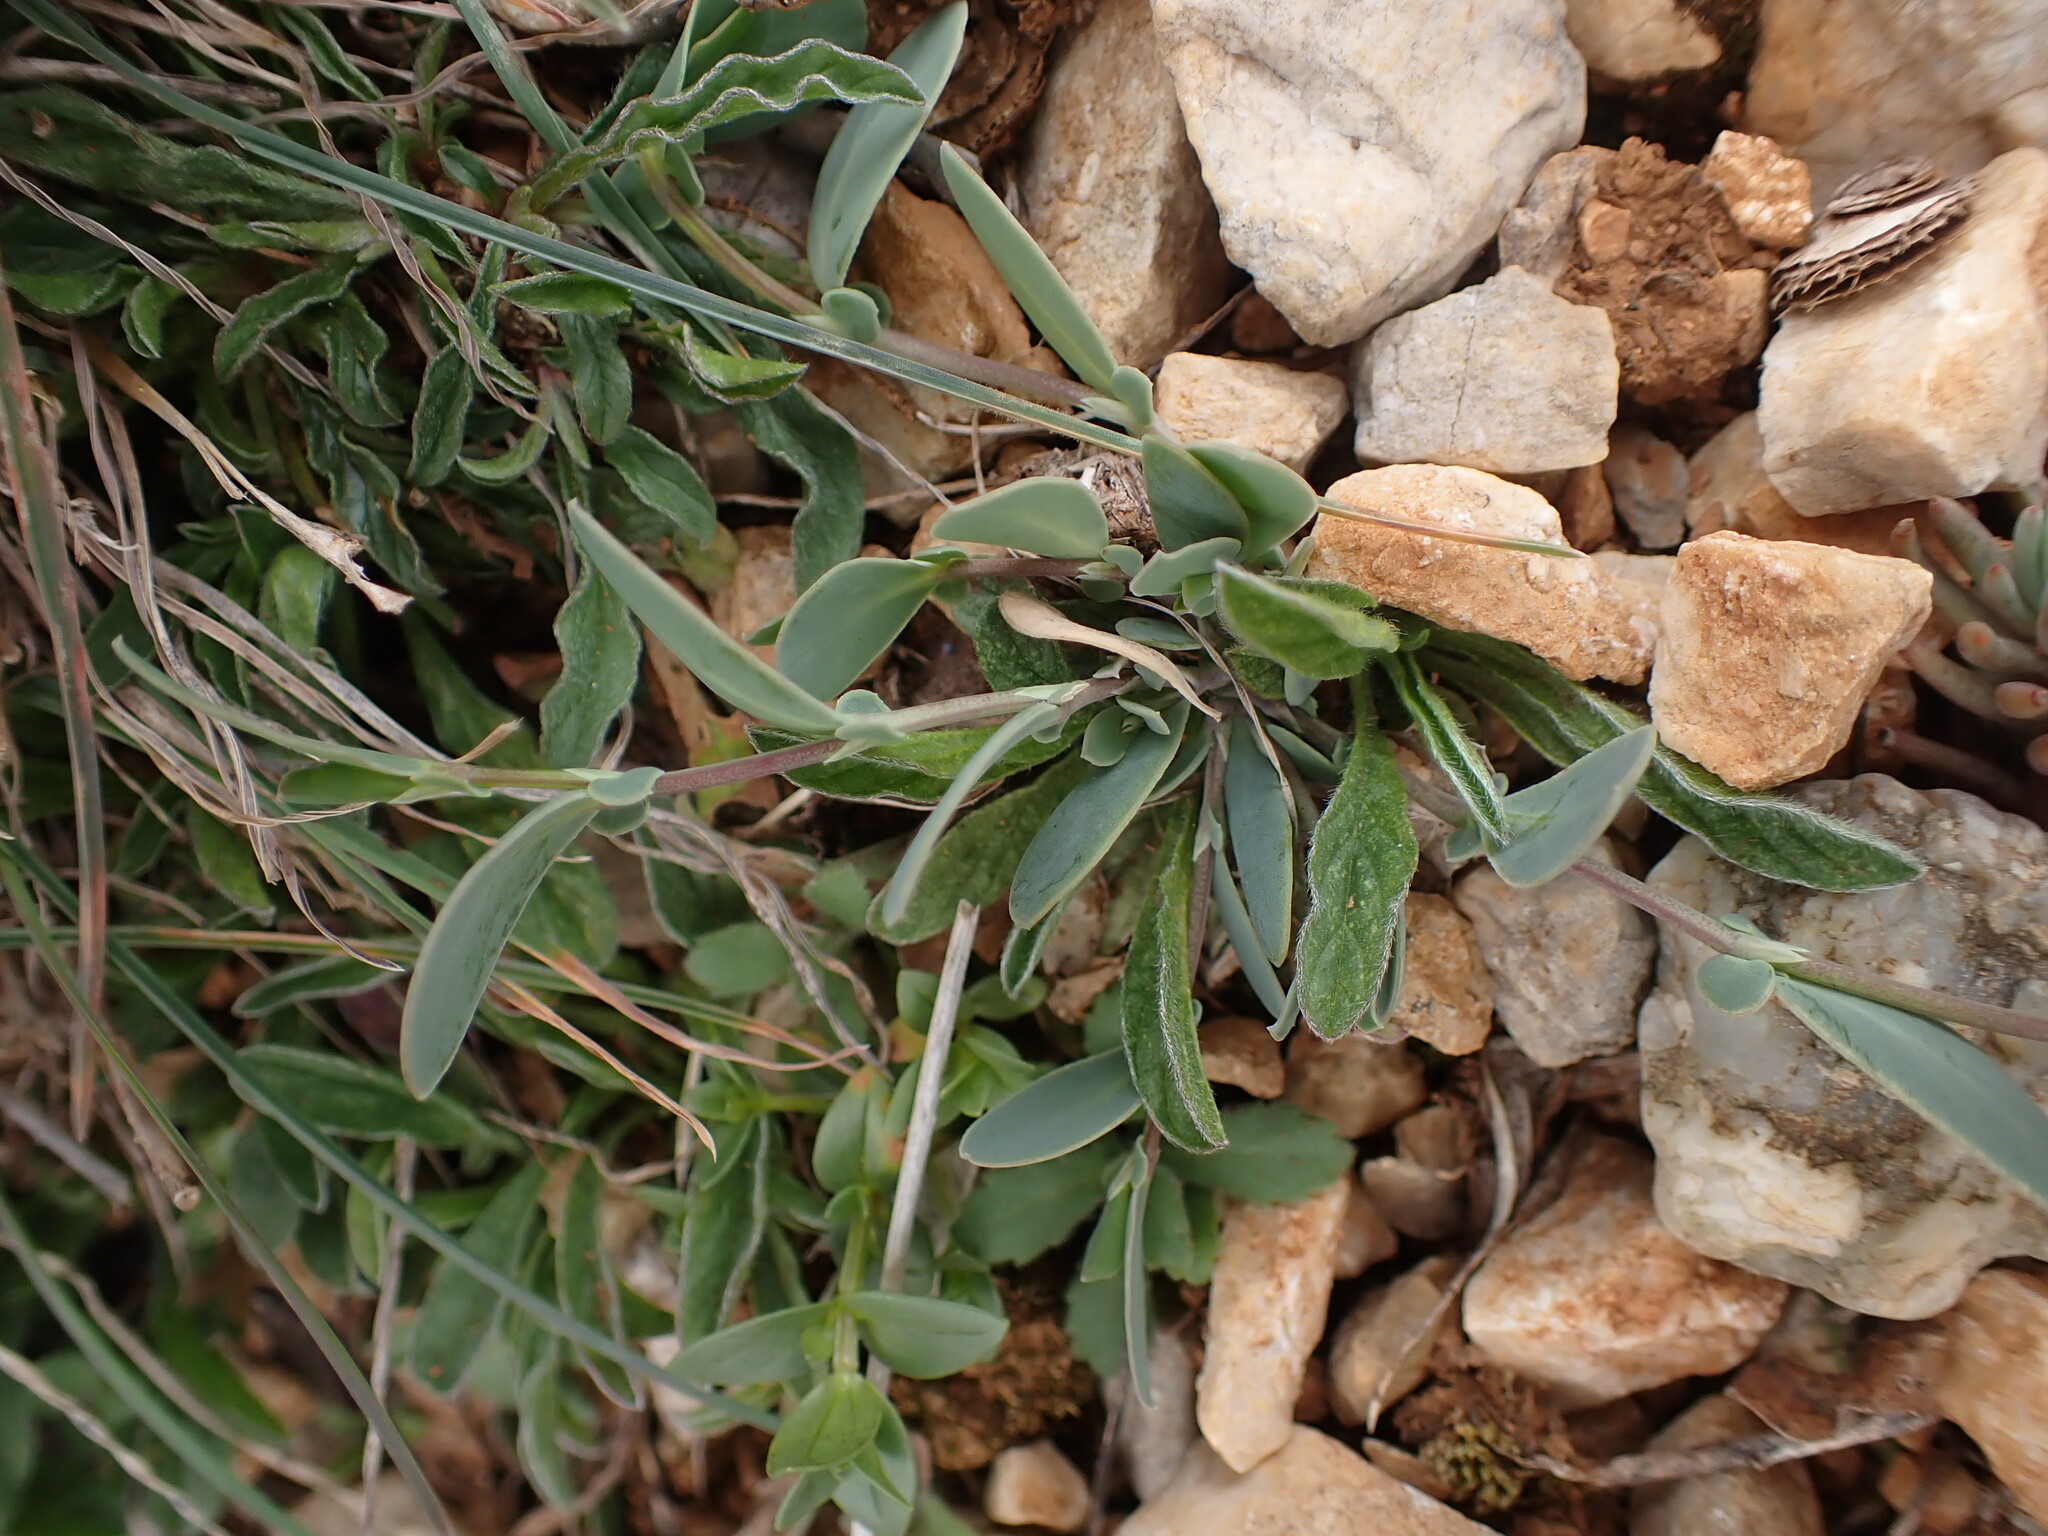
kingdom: Plantae
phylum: Tracheophyta
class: Magnoliopsida
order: Fabales
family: Fabaceae
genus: Anthyllis
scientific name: Anthyllis vulneraria
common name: Kidney vetch
